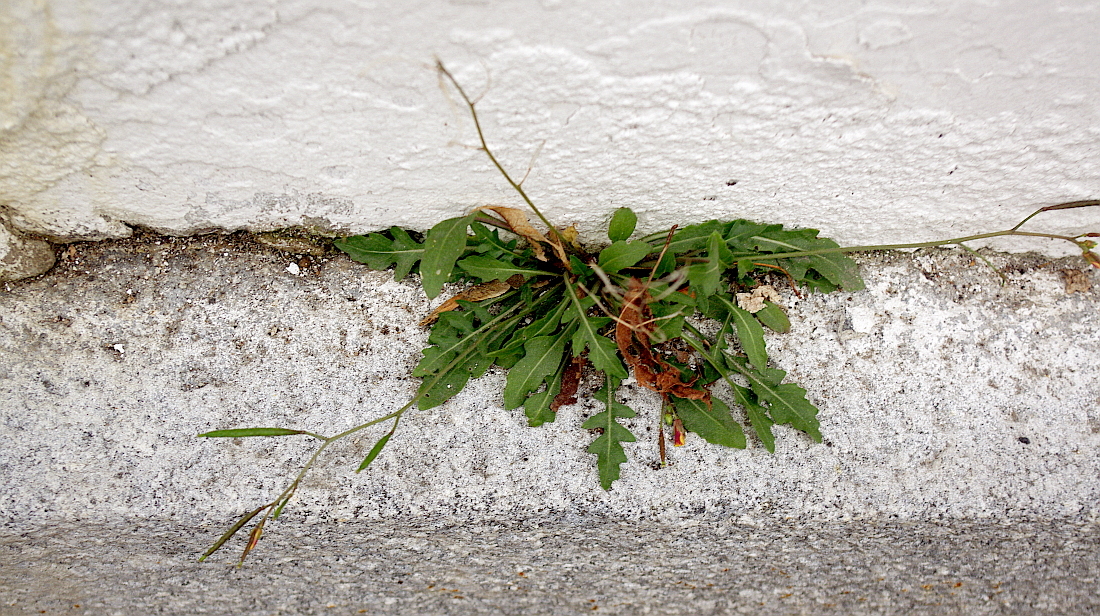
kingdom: Plantae
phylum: Tracheophyta
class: Magnoliopsida
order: Brassicales
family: Brassicaceae
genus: Diplotaxis
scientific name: Diplotaxis muralis
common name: Annual wall-rocket
